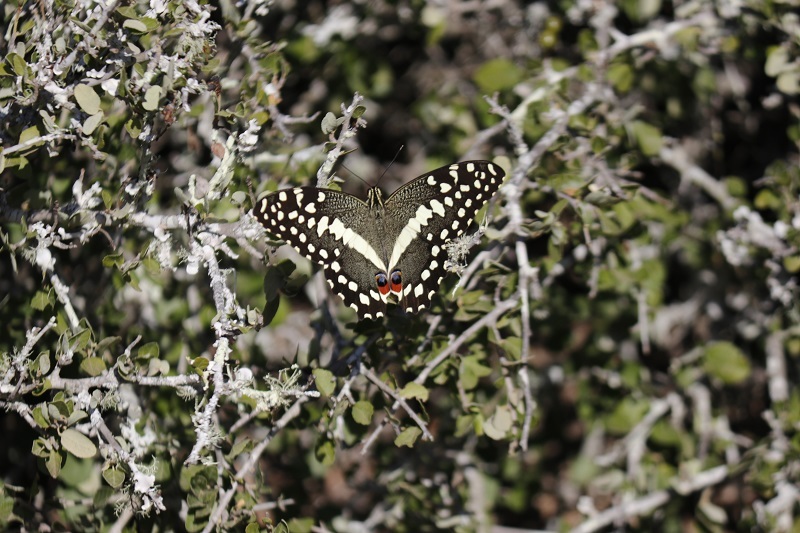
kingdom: Animalia
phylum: Arthropoda
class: Insecta
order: Lepidoptera
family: Papilionidae
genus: Papilio
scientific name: Papilio demodocus
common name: Christmas butterfly
